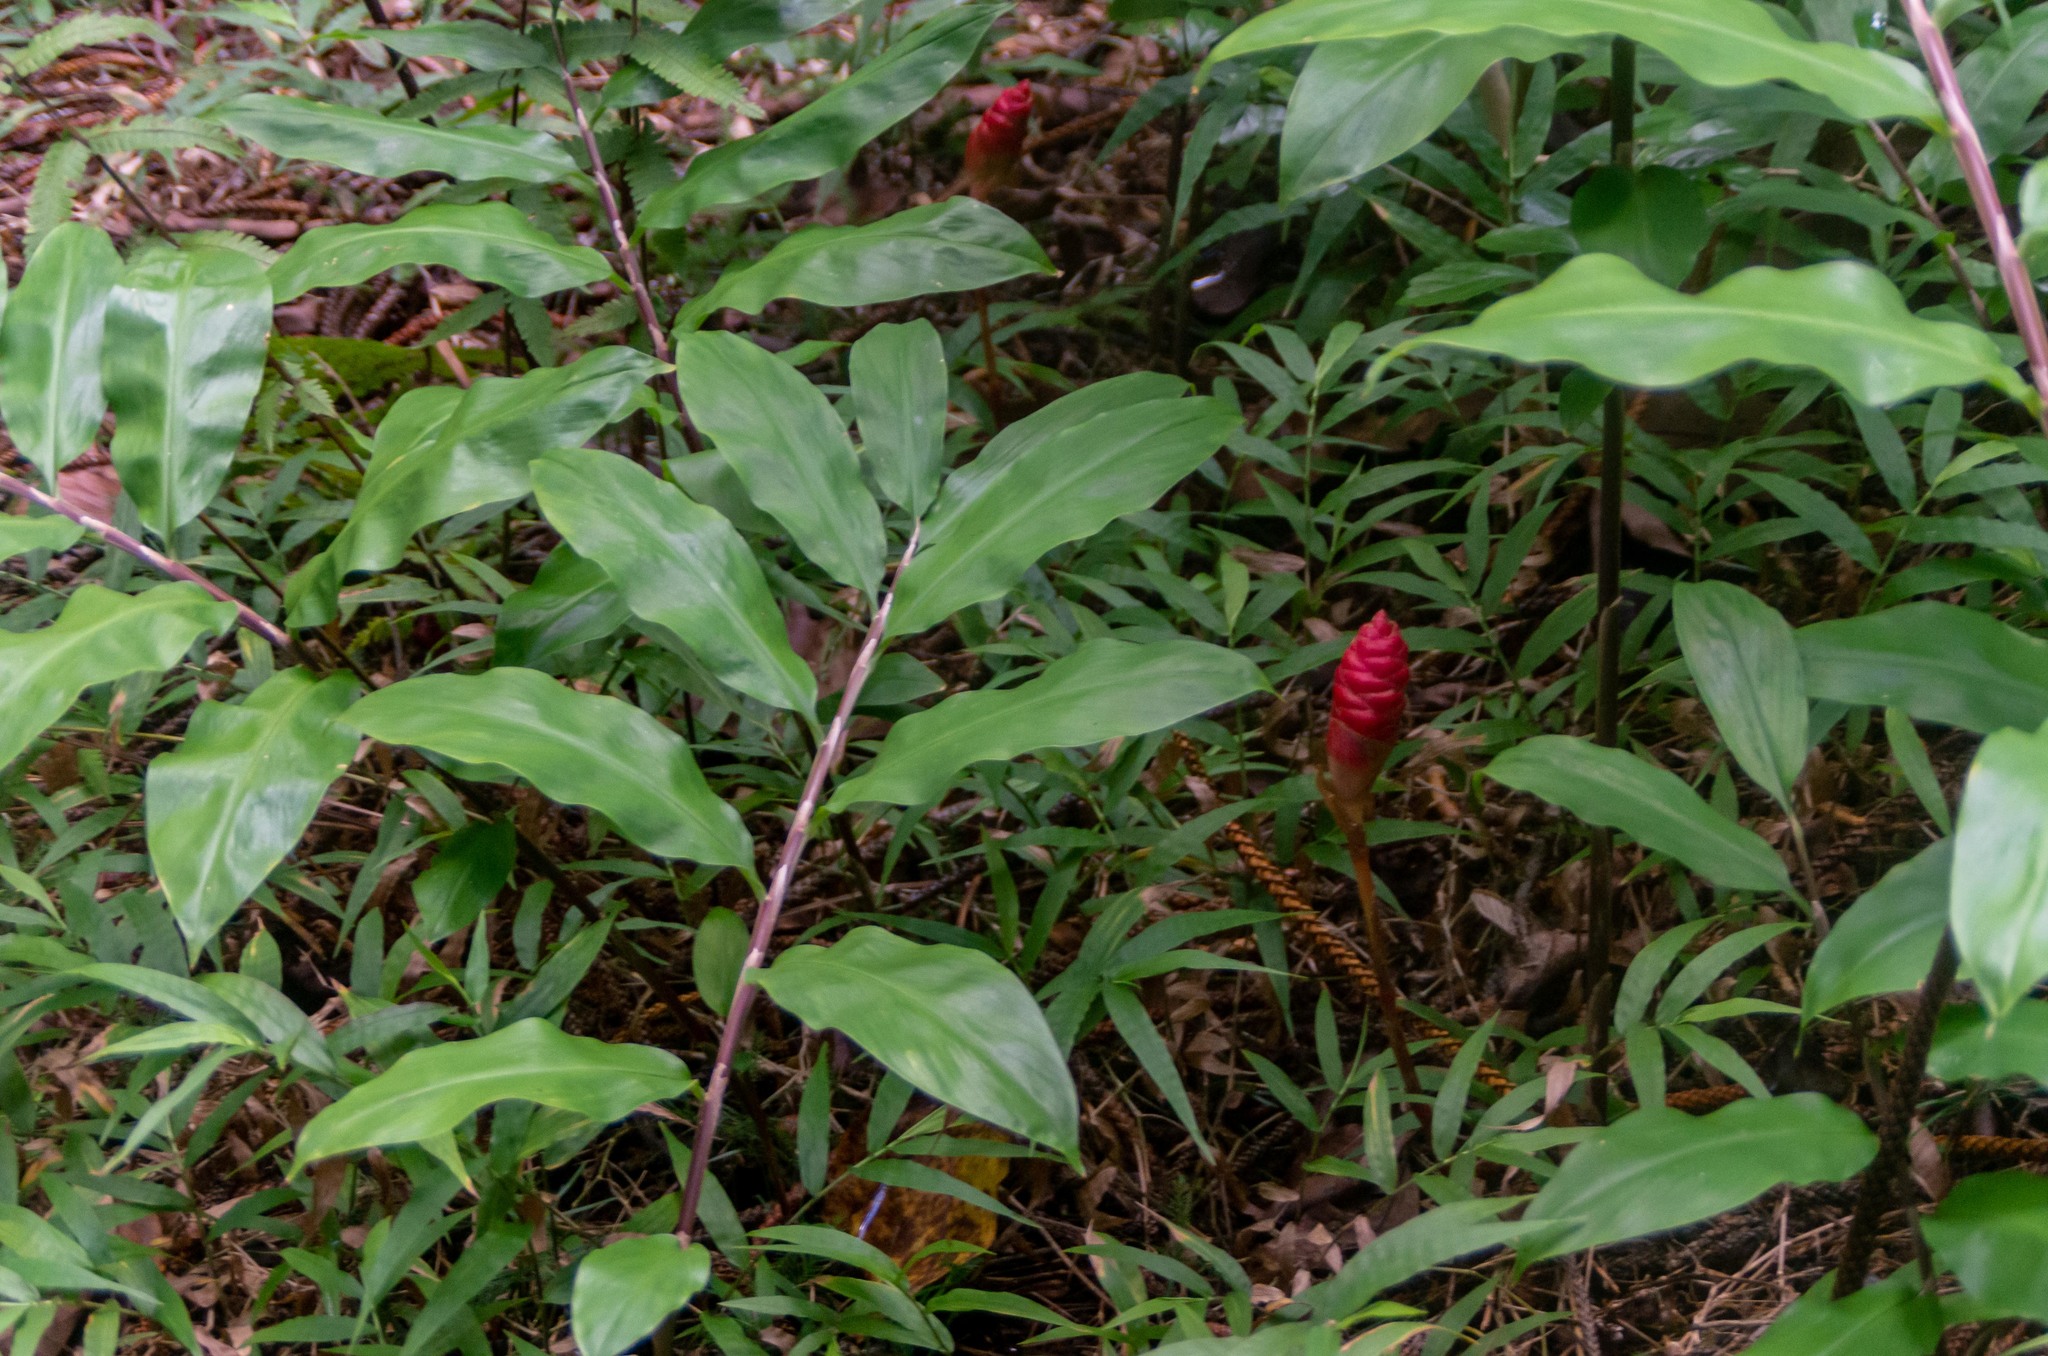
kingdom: Plantae
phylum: Tracheophyta
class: Liliopsida
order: Zingiberales
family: Zingiberaceae
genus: Zingiber
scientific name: Zingiber zerumbet
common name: Bitter ginger
